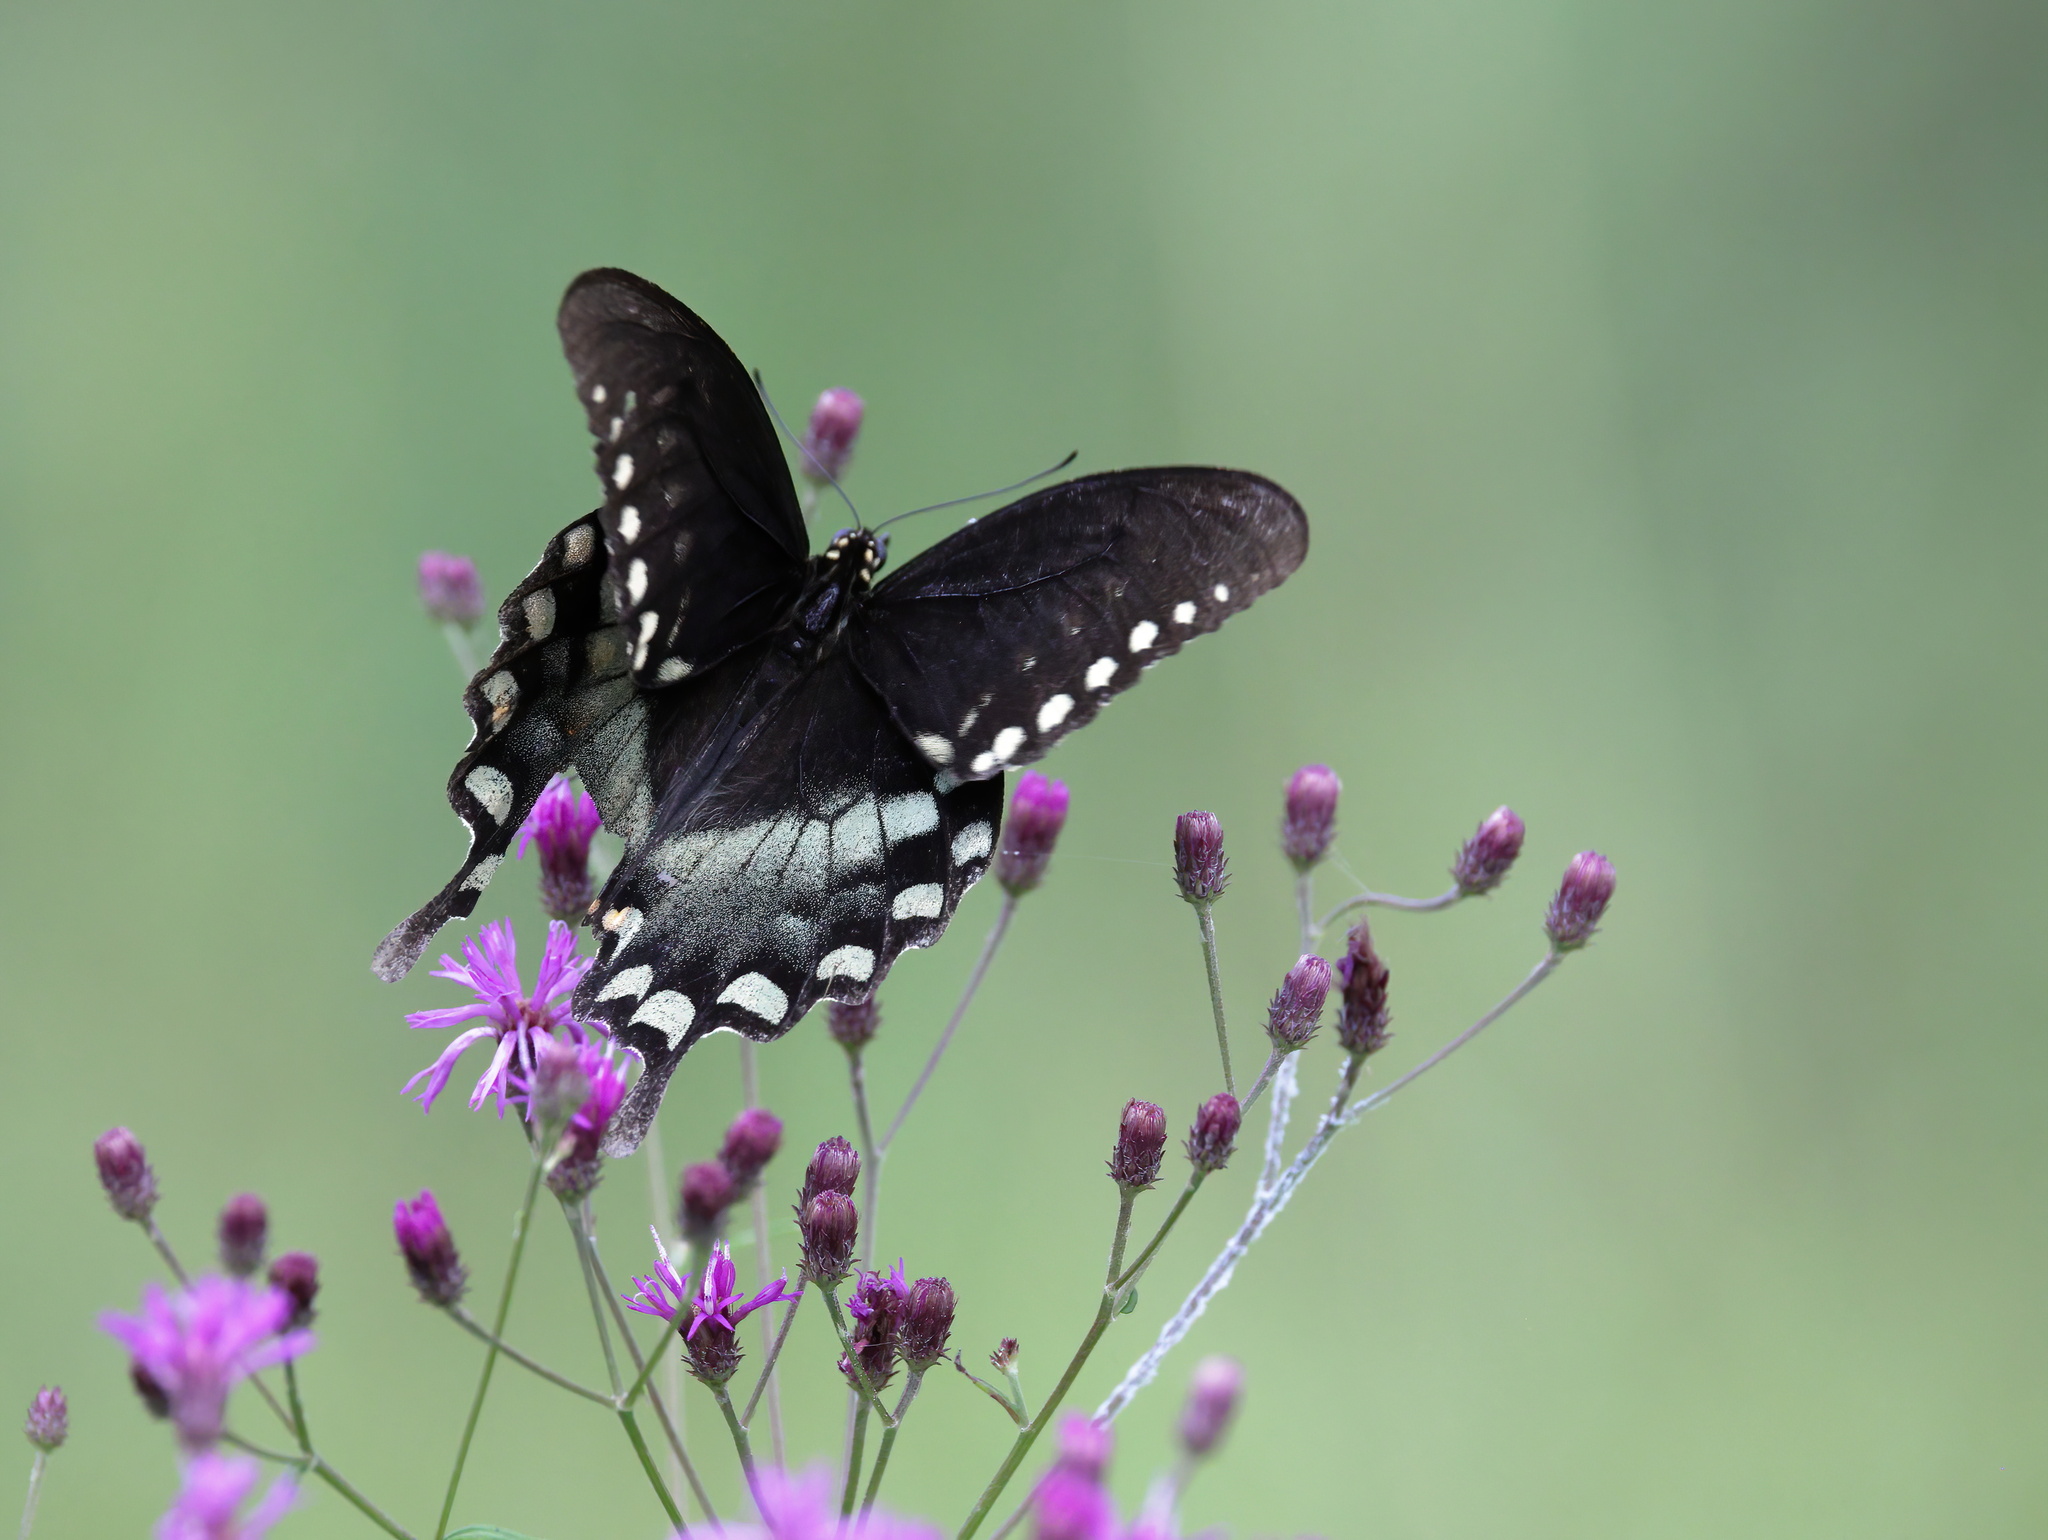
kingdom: Animalia
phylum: Arthropoda
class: Insecta
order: Lepidoptera
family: Papilionidae
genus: Papilio
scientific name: Papilio troilus
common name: Spicebush swallowtail
